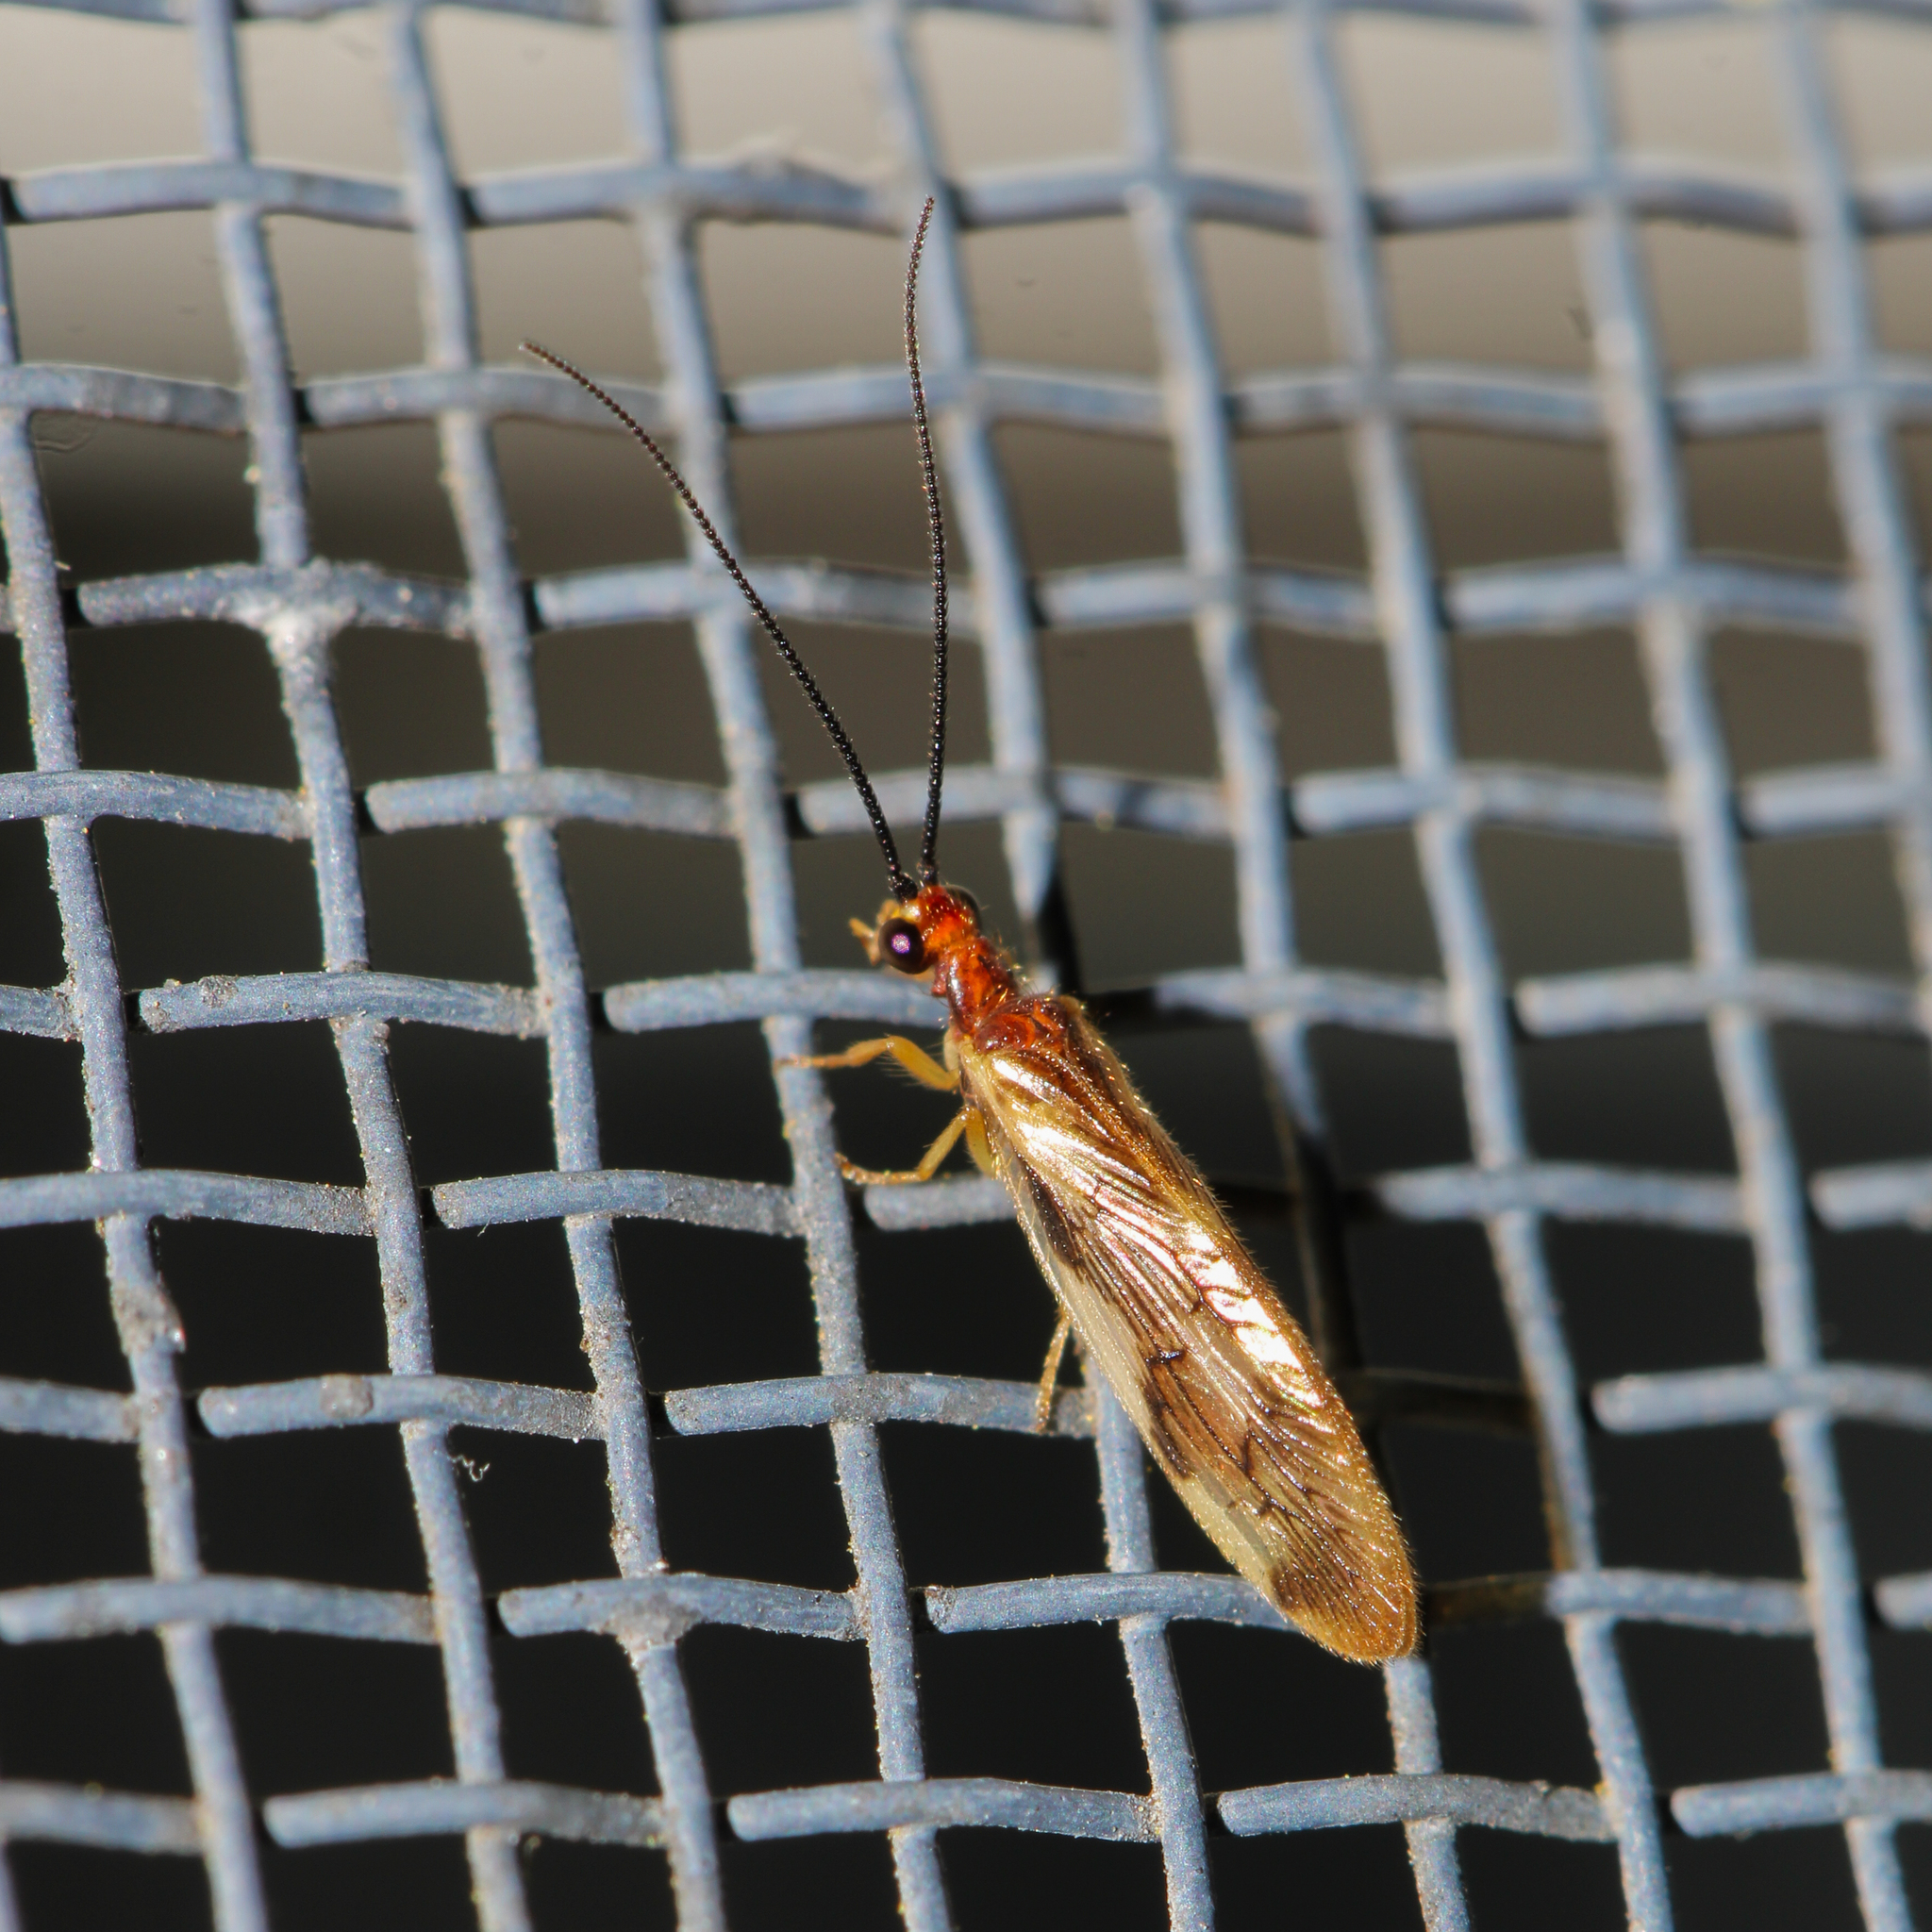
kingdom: Animalia
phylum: Arthropoda
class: Insecta
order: Neuroptera
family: Sisyridae
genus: Climacia
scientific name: Climacia areolaris
